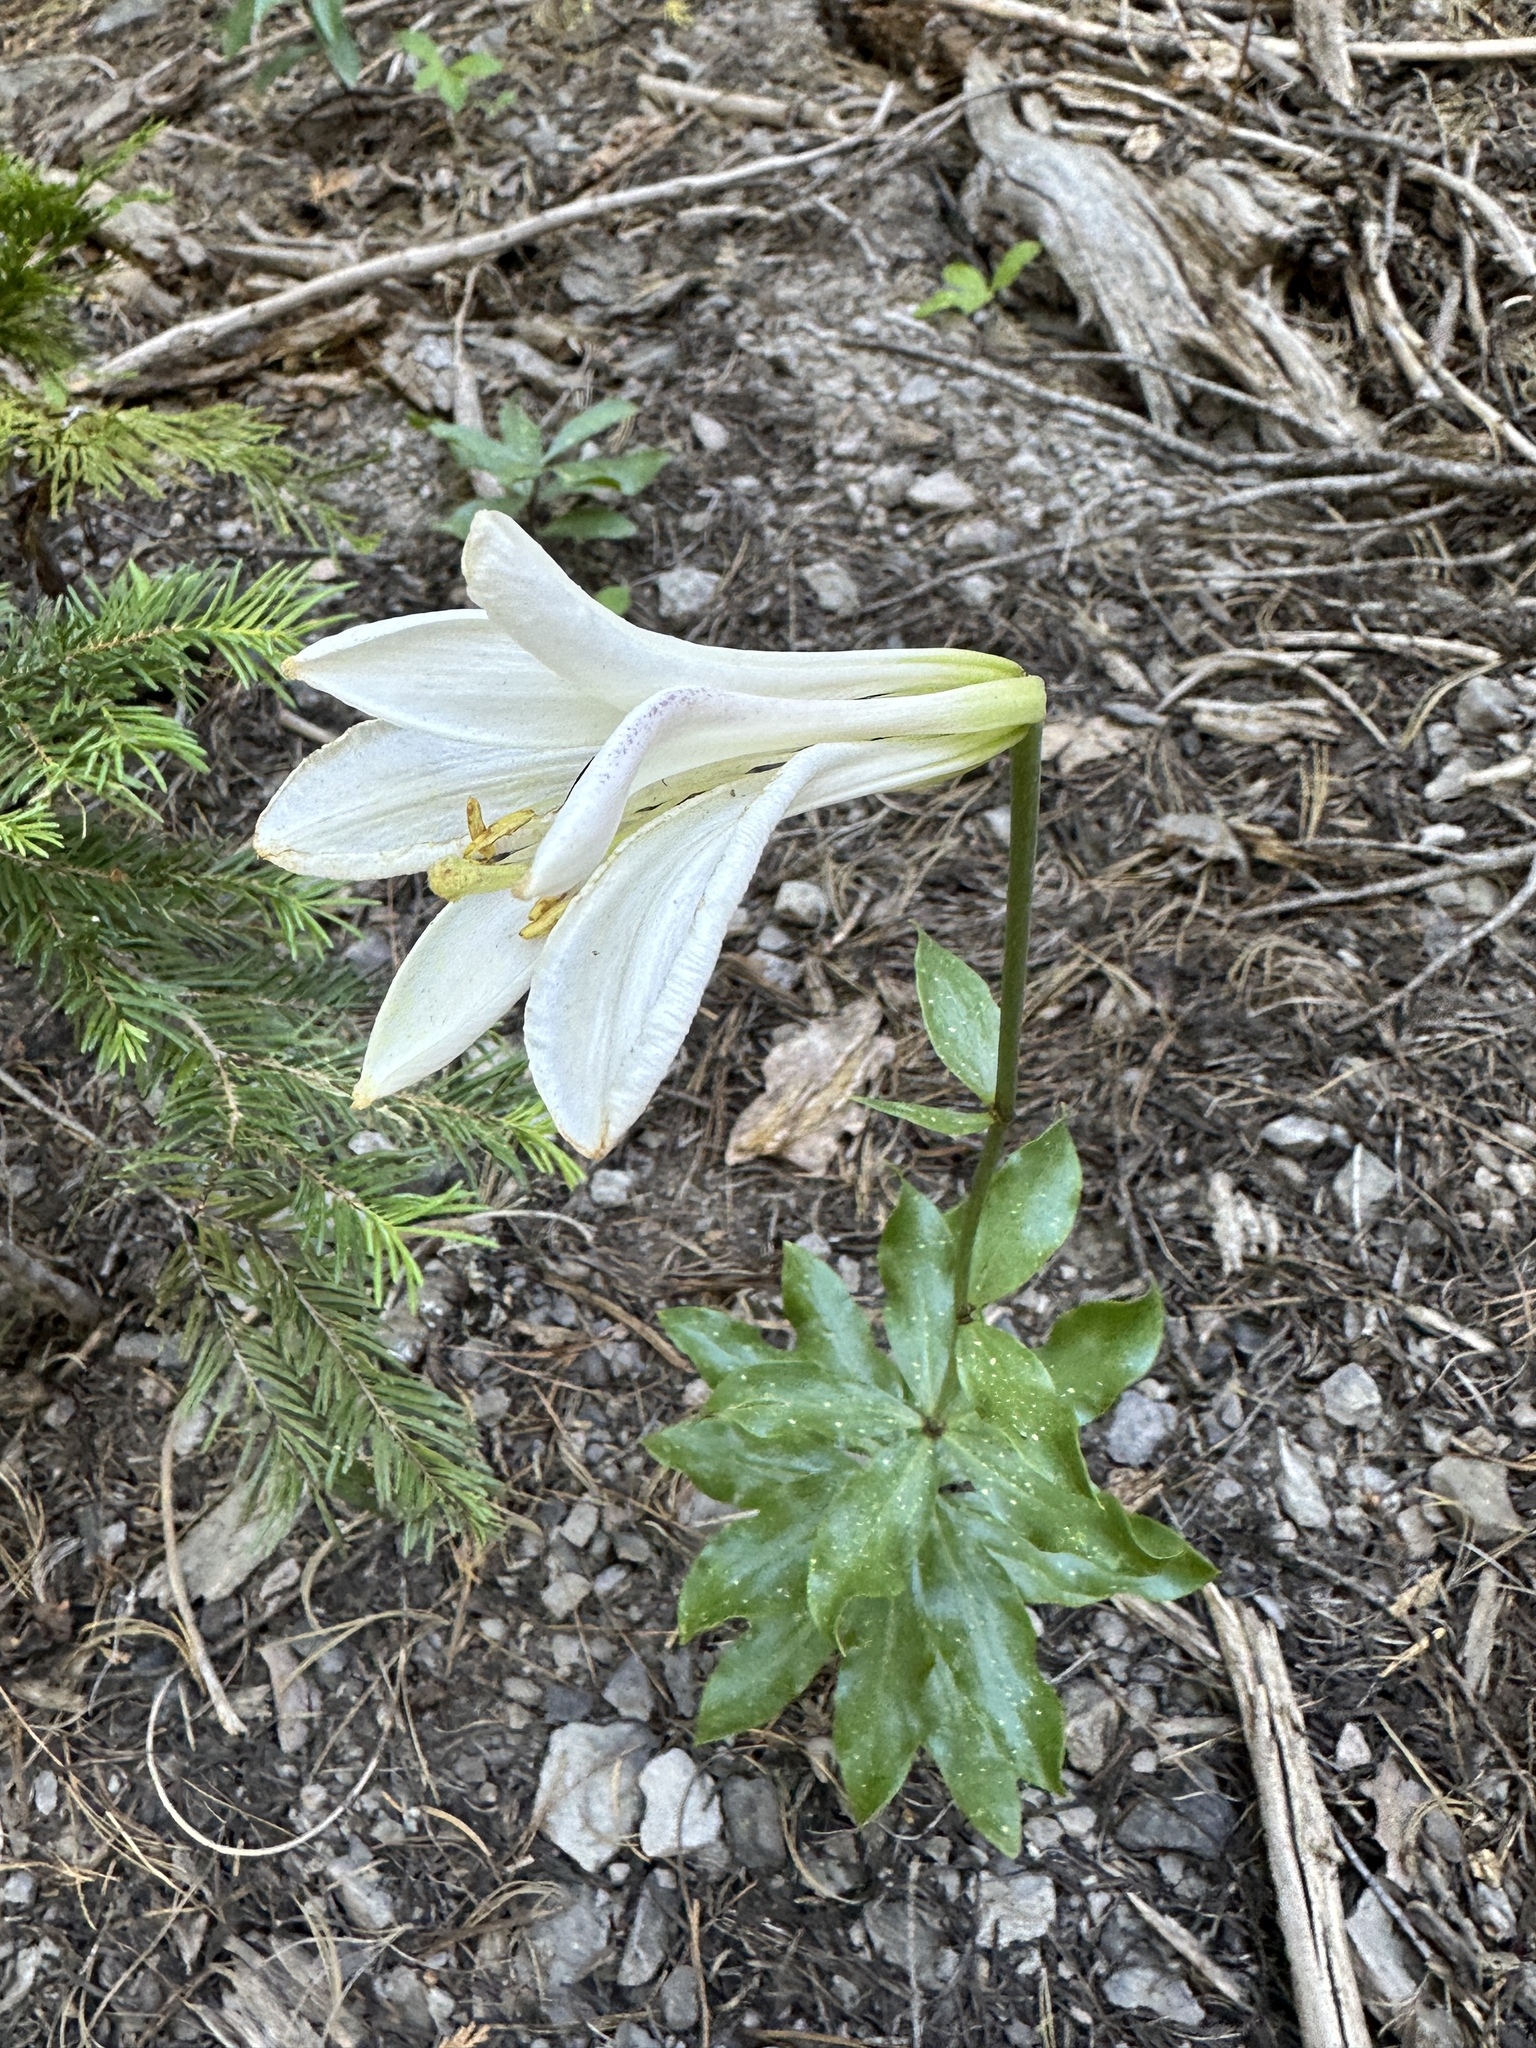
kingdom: Plantae
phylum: Tracheophyta
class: Liliopsida
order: Liliales
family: Liliaceae
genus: Lilium
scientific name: Lilium washingtonianum
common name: Washington lily
